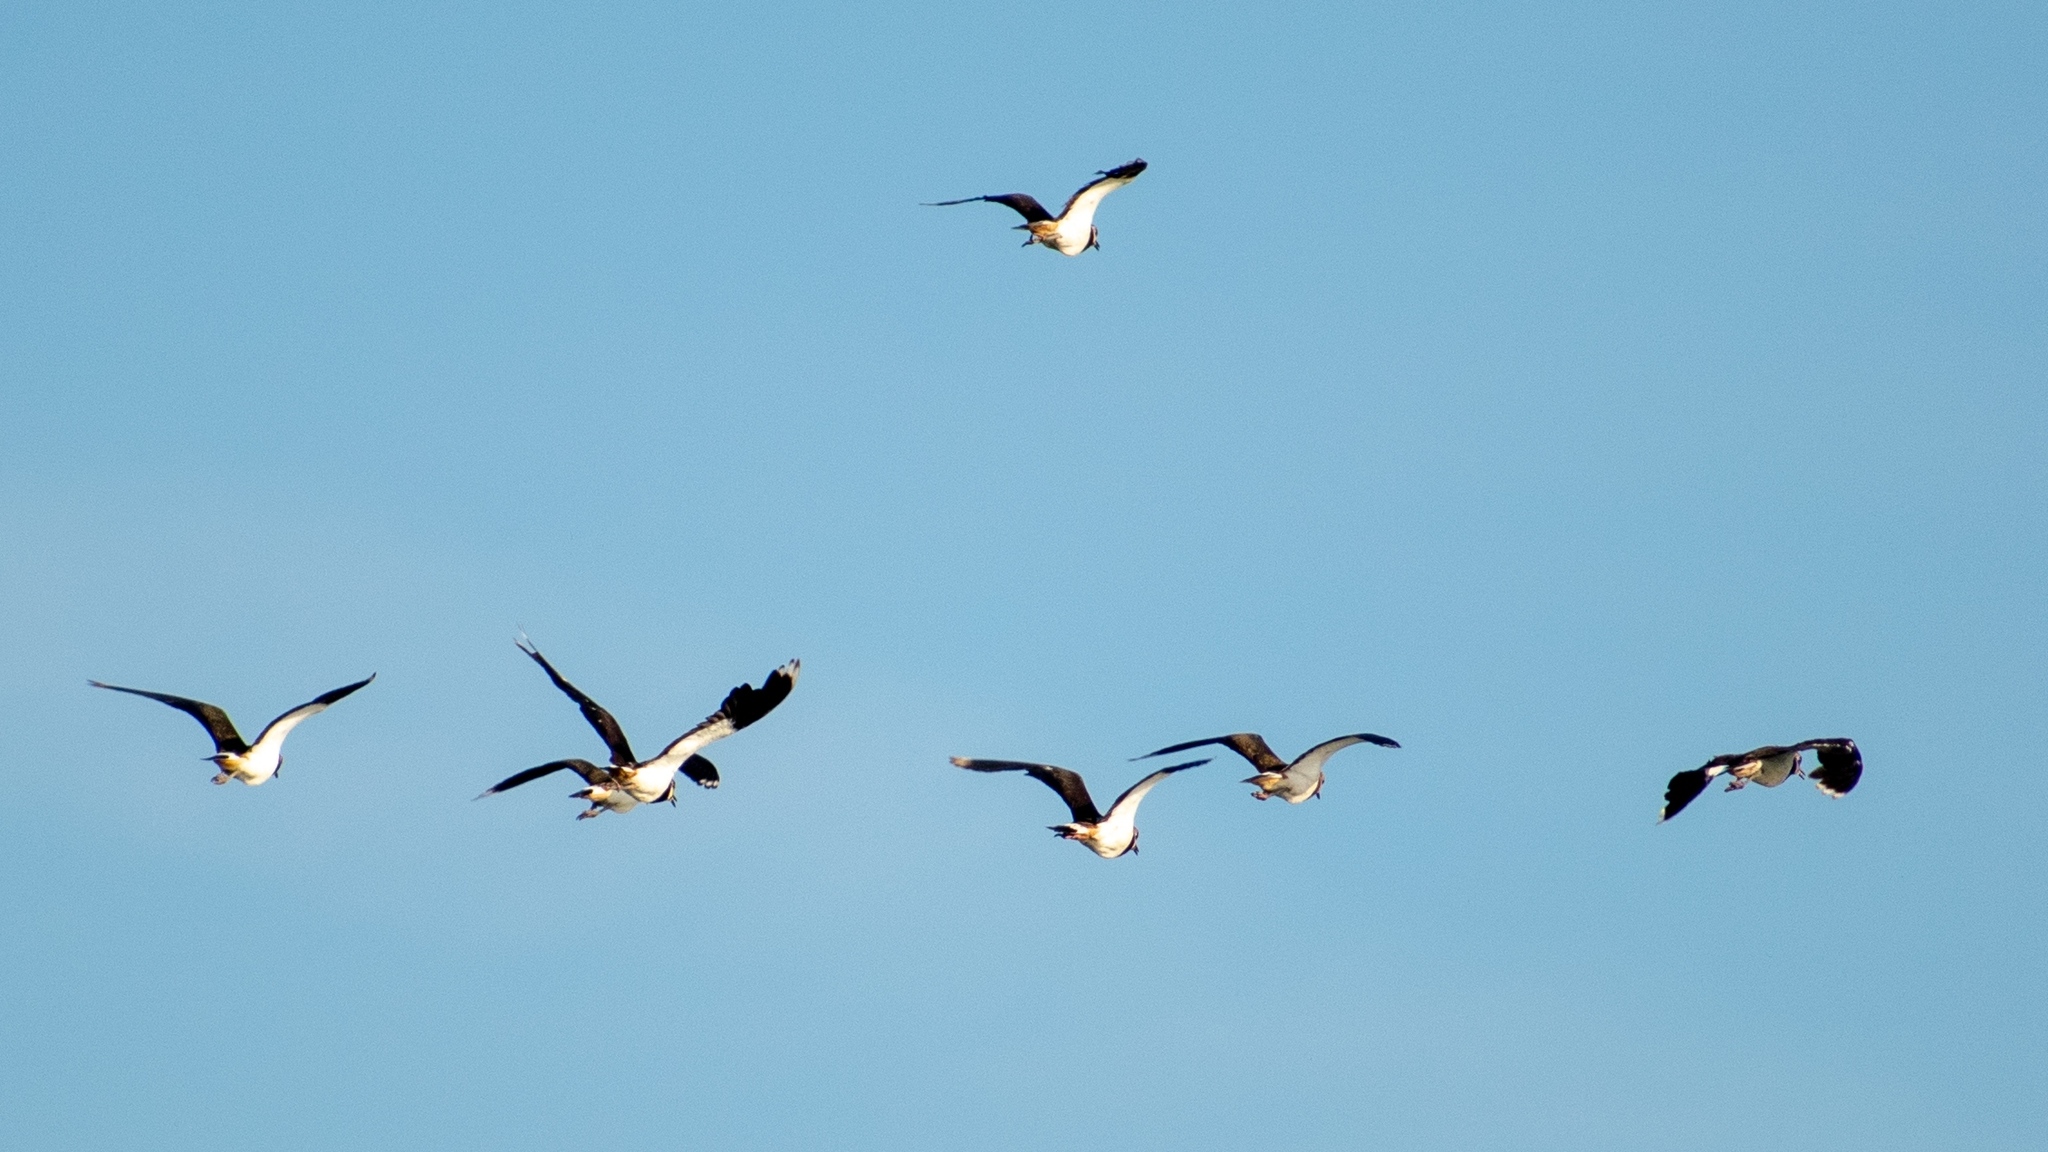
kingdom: Animalia
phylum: Chordata
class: Aves
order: Charadriiformes
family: Charadriidae
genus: Vanellus
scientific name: Vanellus vanellus
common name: Northern lapwing
